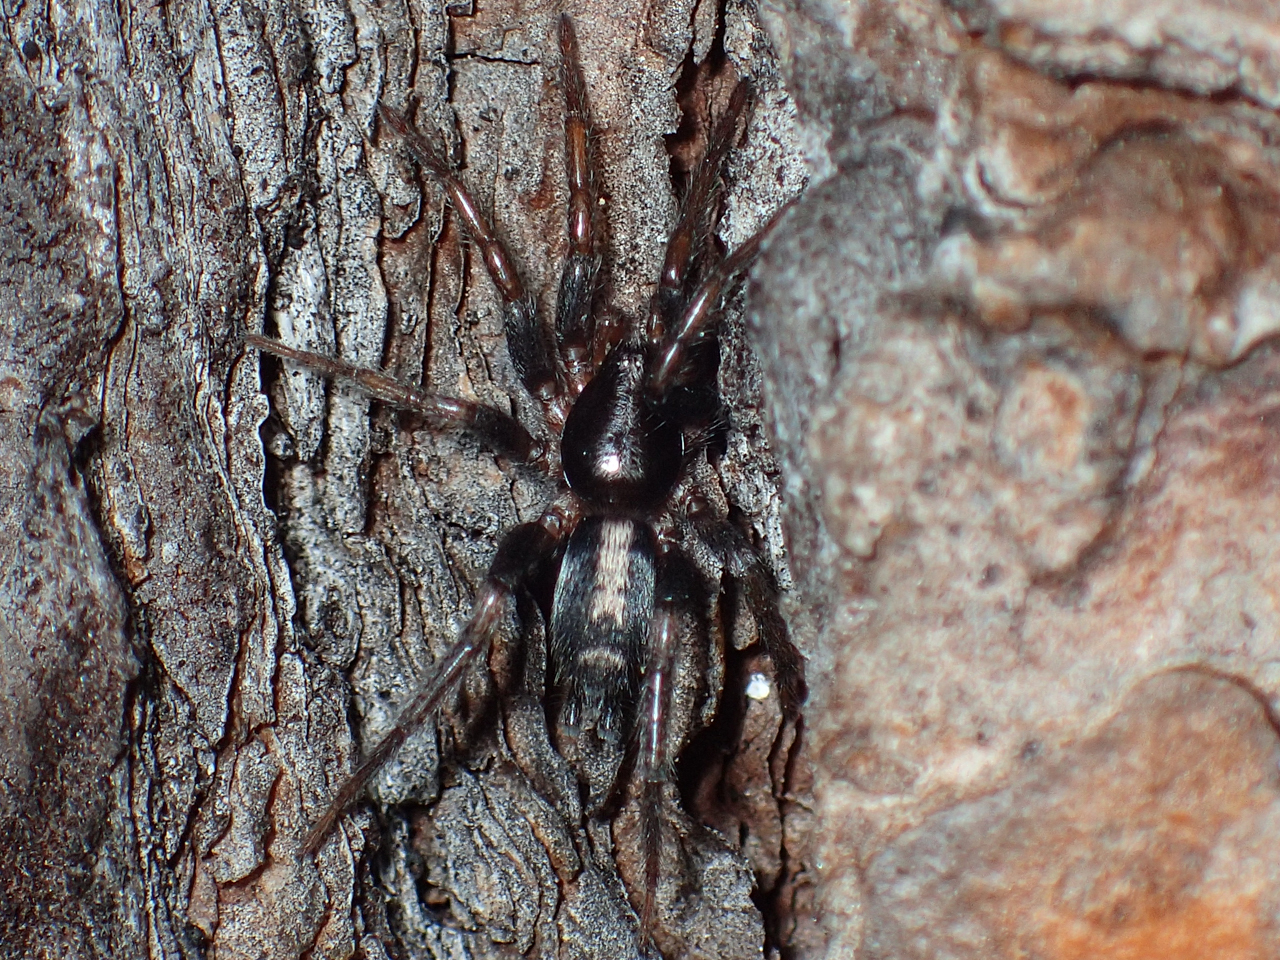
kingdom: Animalia
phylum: Arthropoda
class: Arachnida
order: Araneae
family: Gnaphosidae
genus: Herpyllus
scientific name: Herpyllus ecclesiasticus
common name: Eastern parson spider
